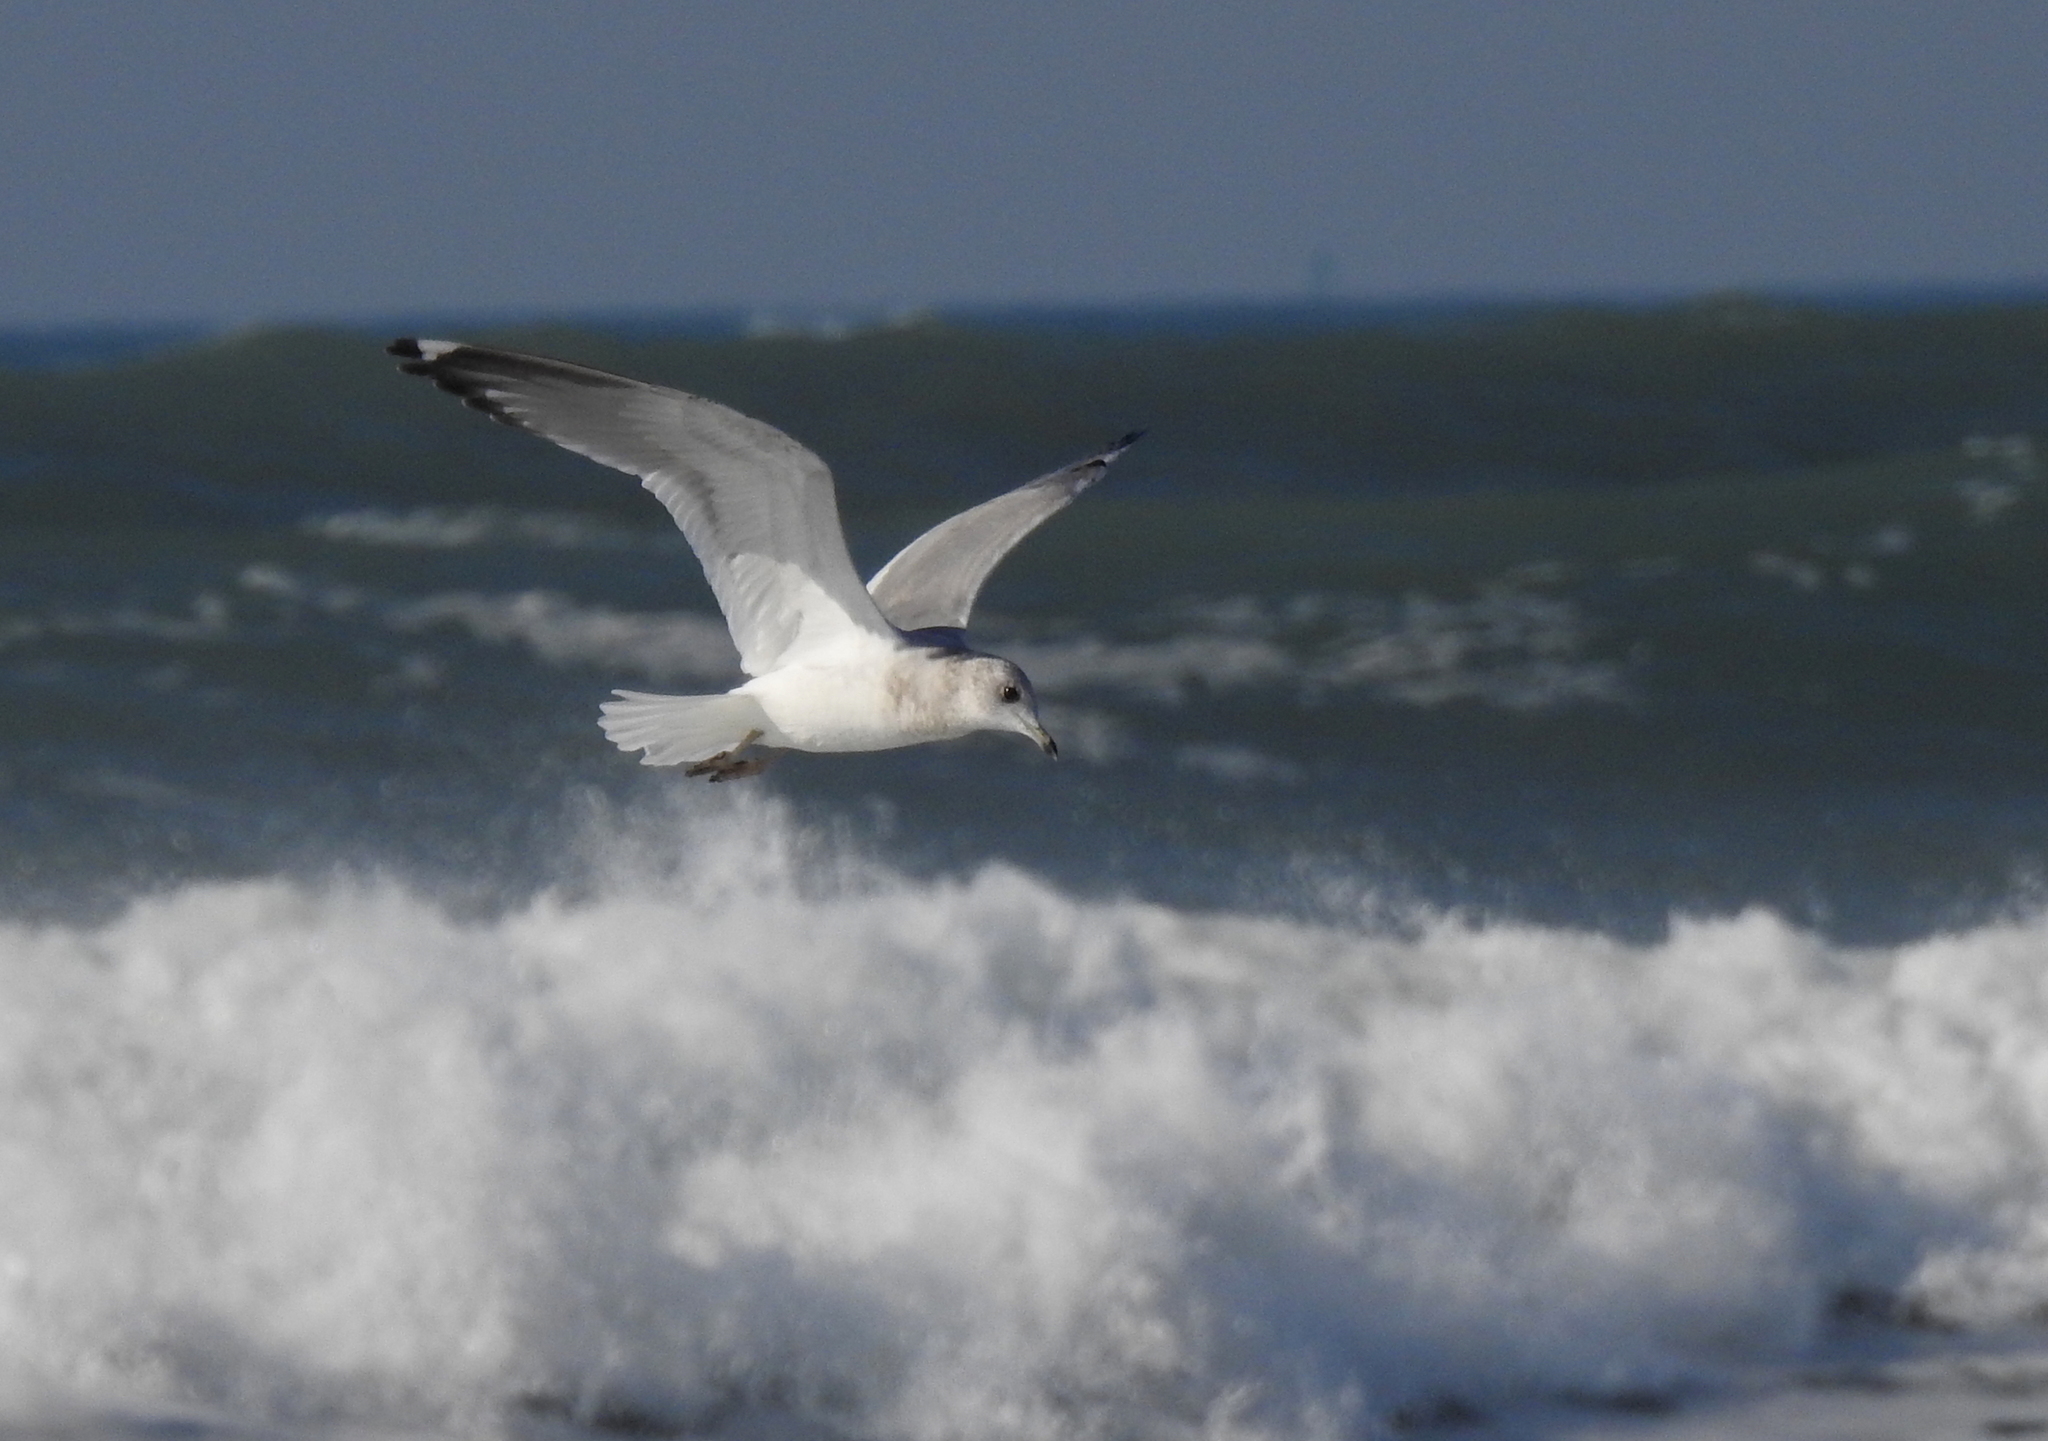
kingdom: Animalia
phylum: Chordata
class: Aves
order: Charadriiformes
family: Laridae
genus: Larus
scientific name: Larus brachyrhynchus
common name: Short-billed gull
